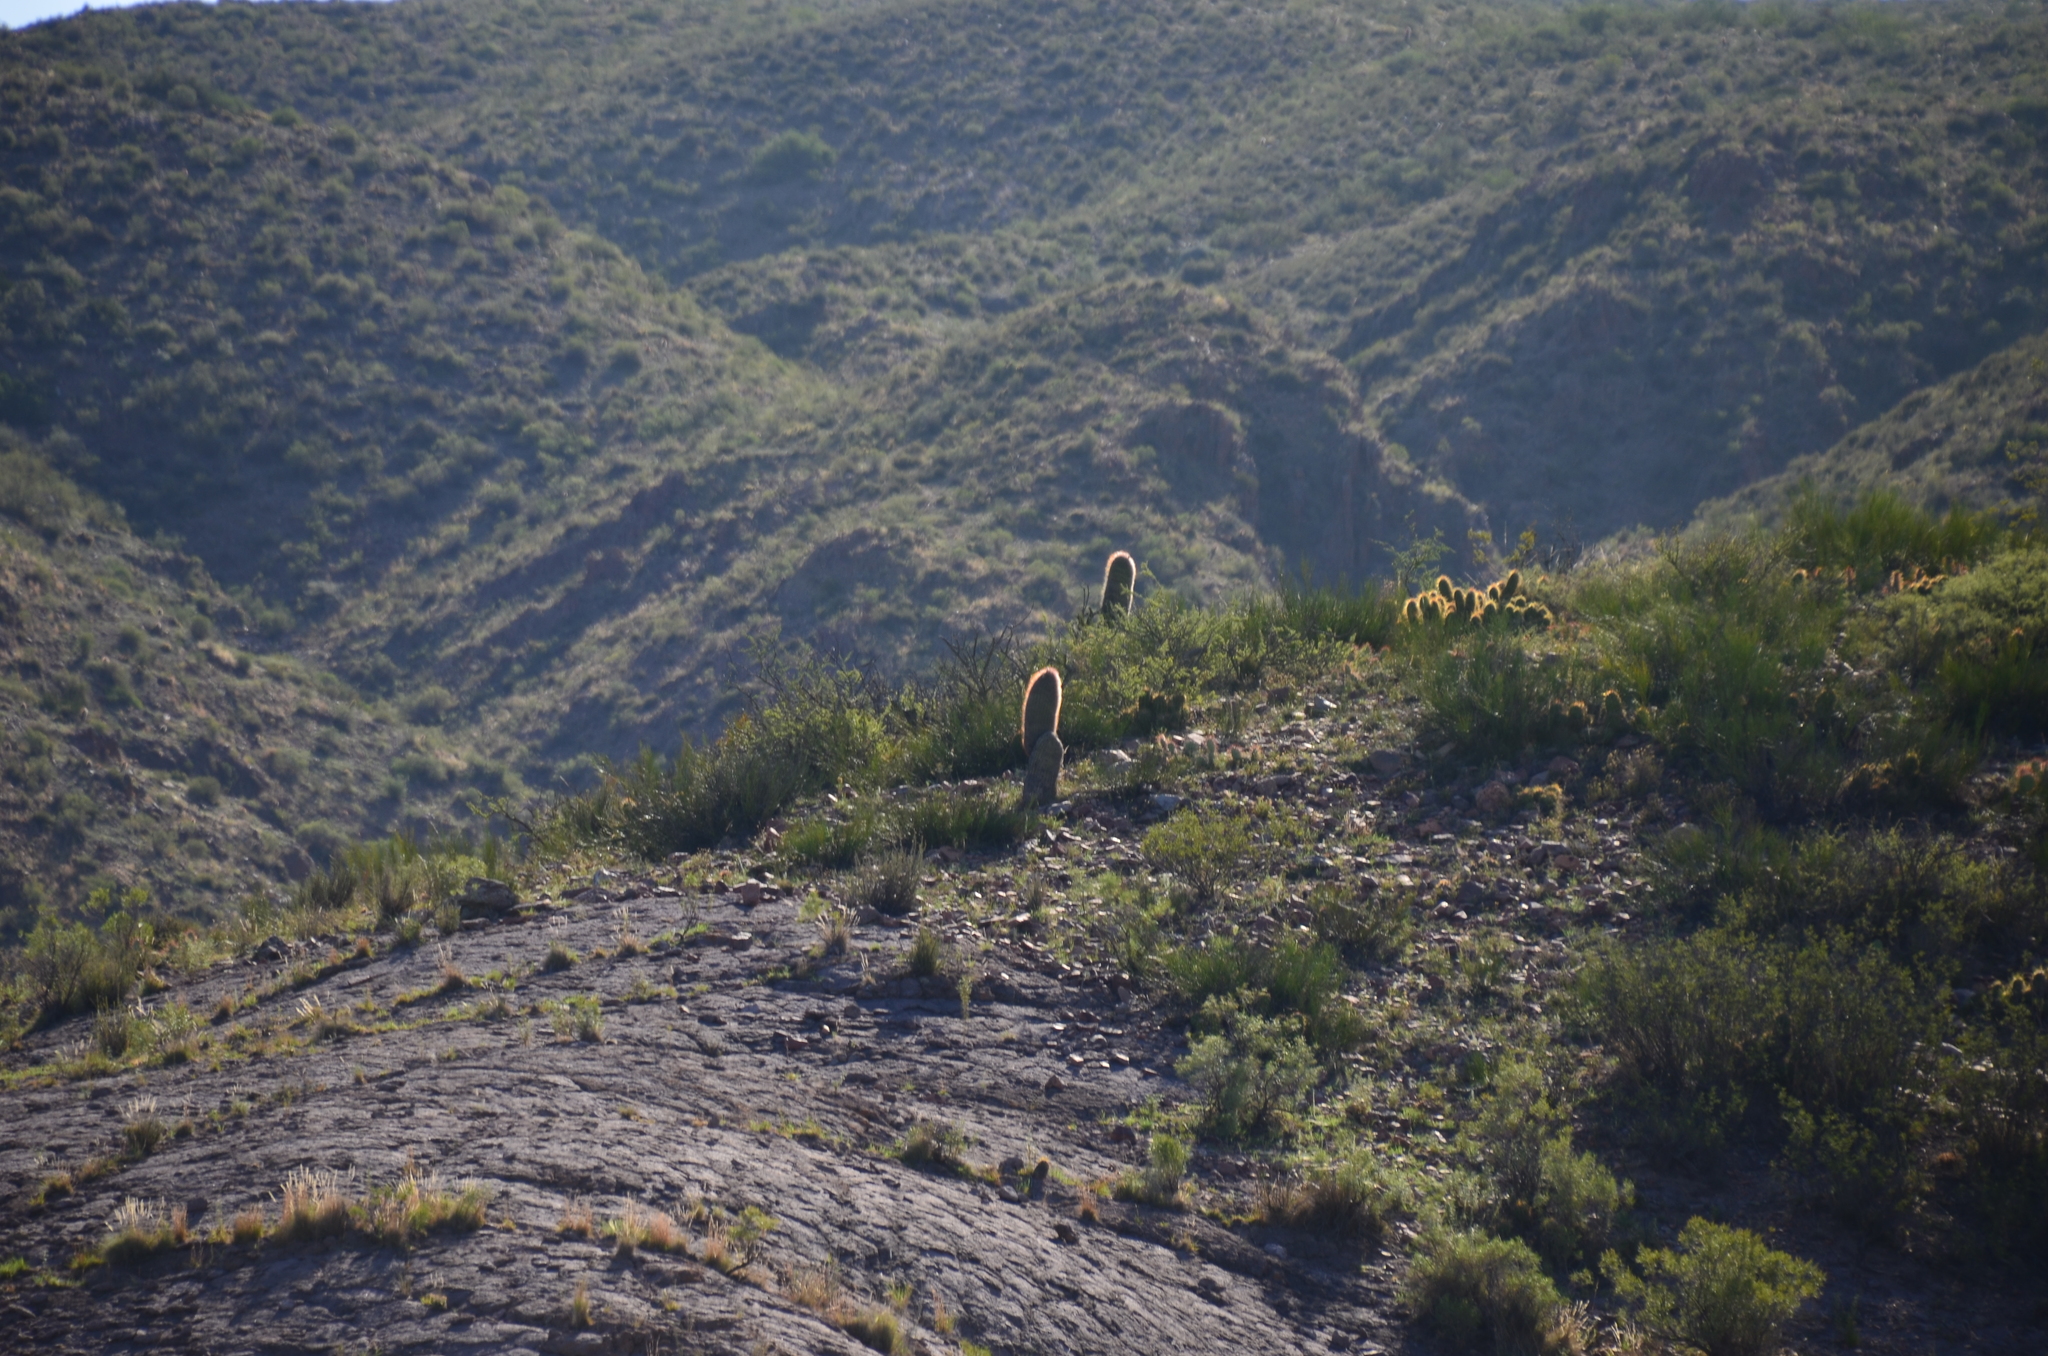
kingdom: Plantae
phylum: Tracheophyta
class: Magnoliopsida
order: Caryophyllales
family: Cactaceae
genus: Denmoza
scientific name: Denmoza rhodacantha
